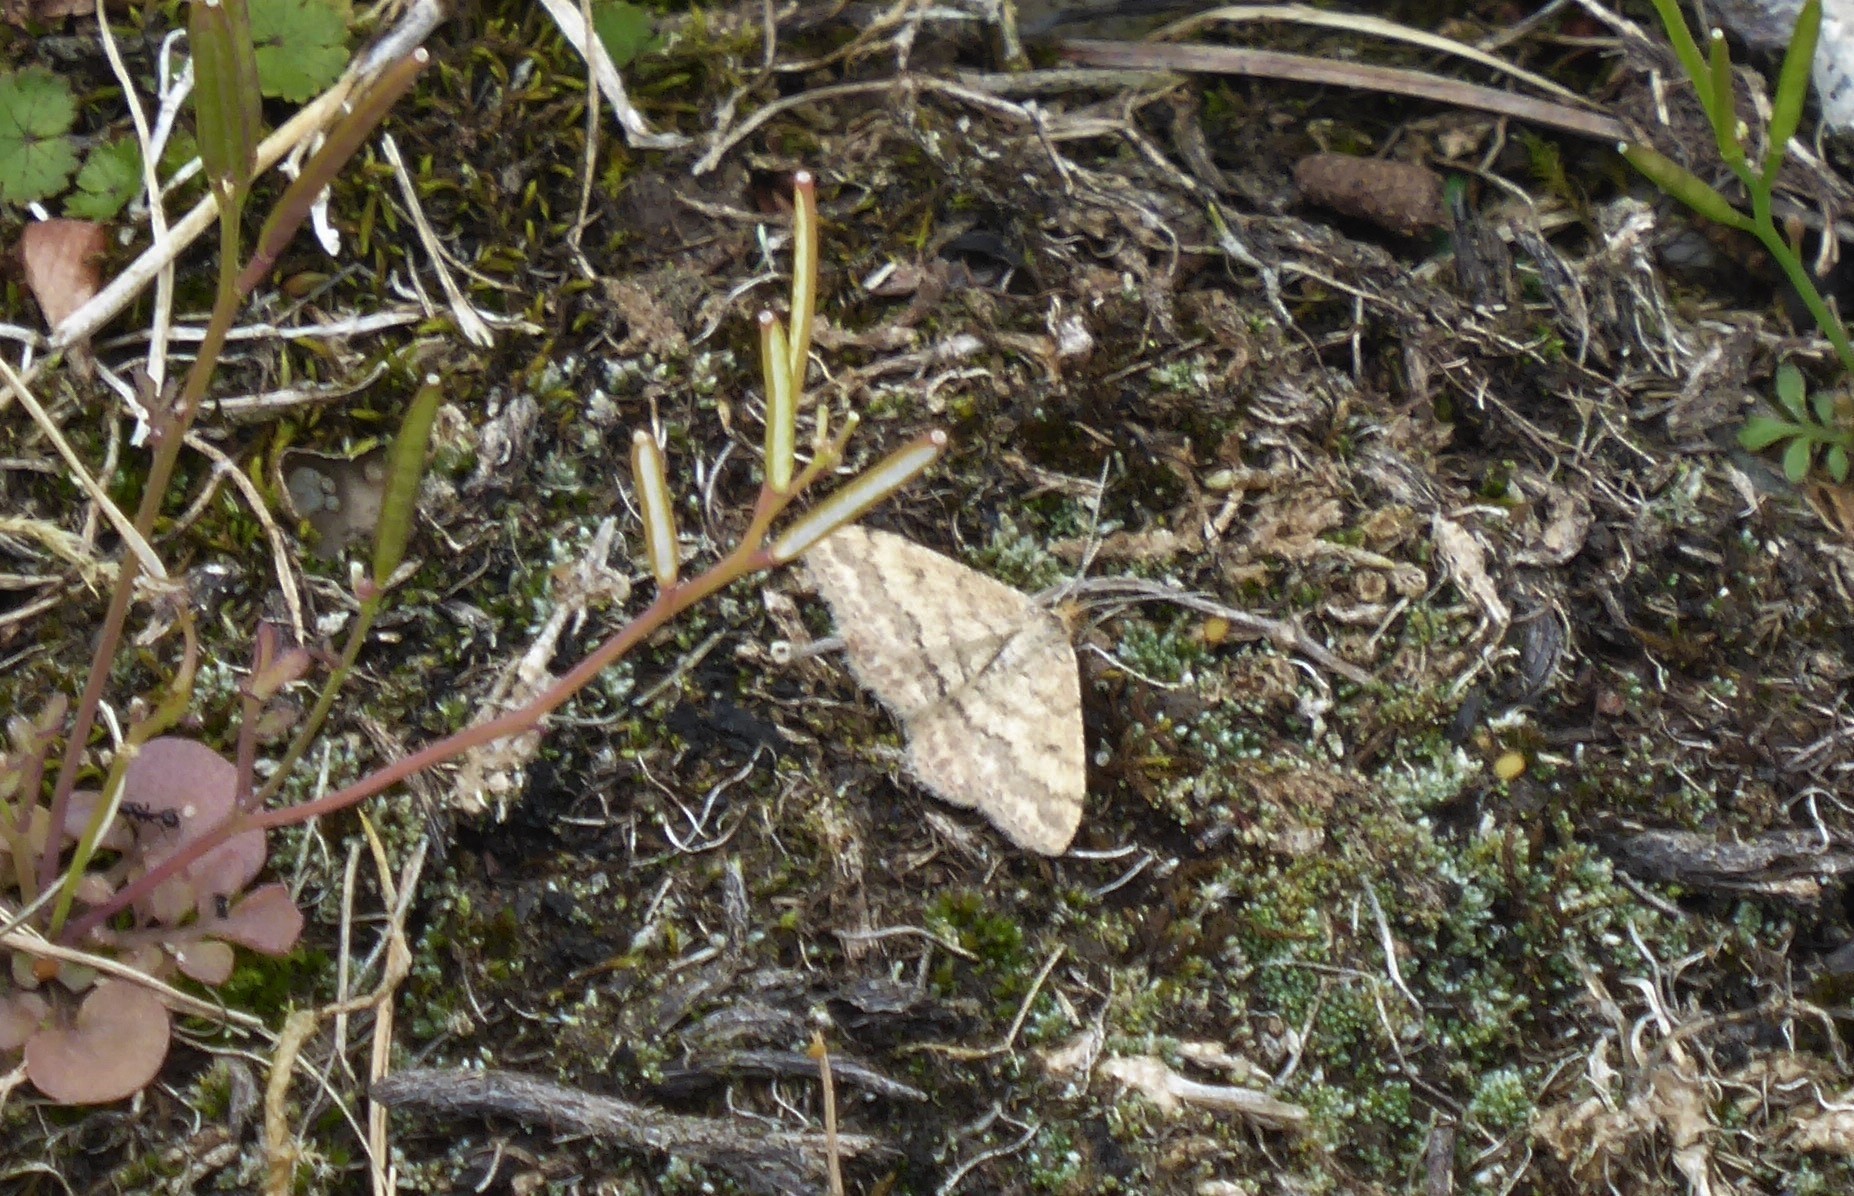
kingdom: Animalia
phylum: Arthropoda
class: Insecta
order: Lepidoptera
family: Geometridae
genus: Scopula
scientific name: Scopula rubraria
